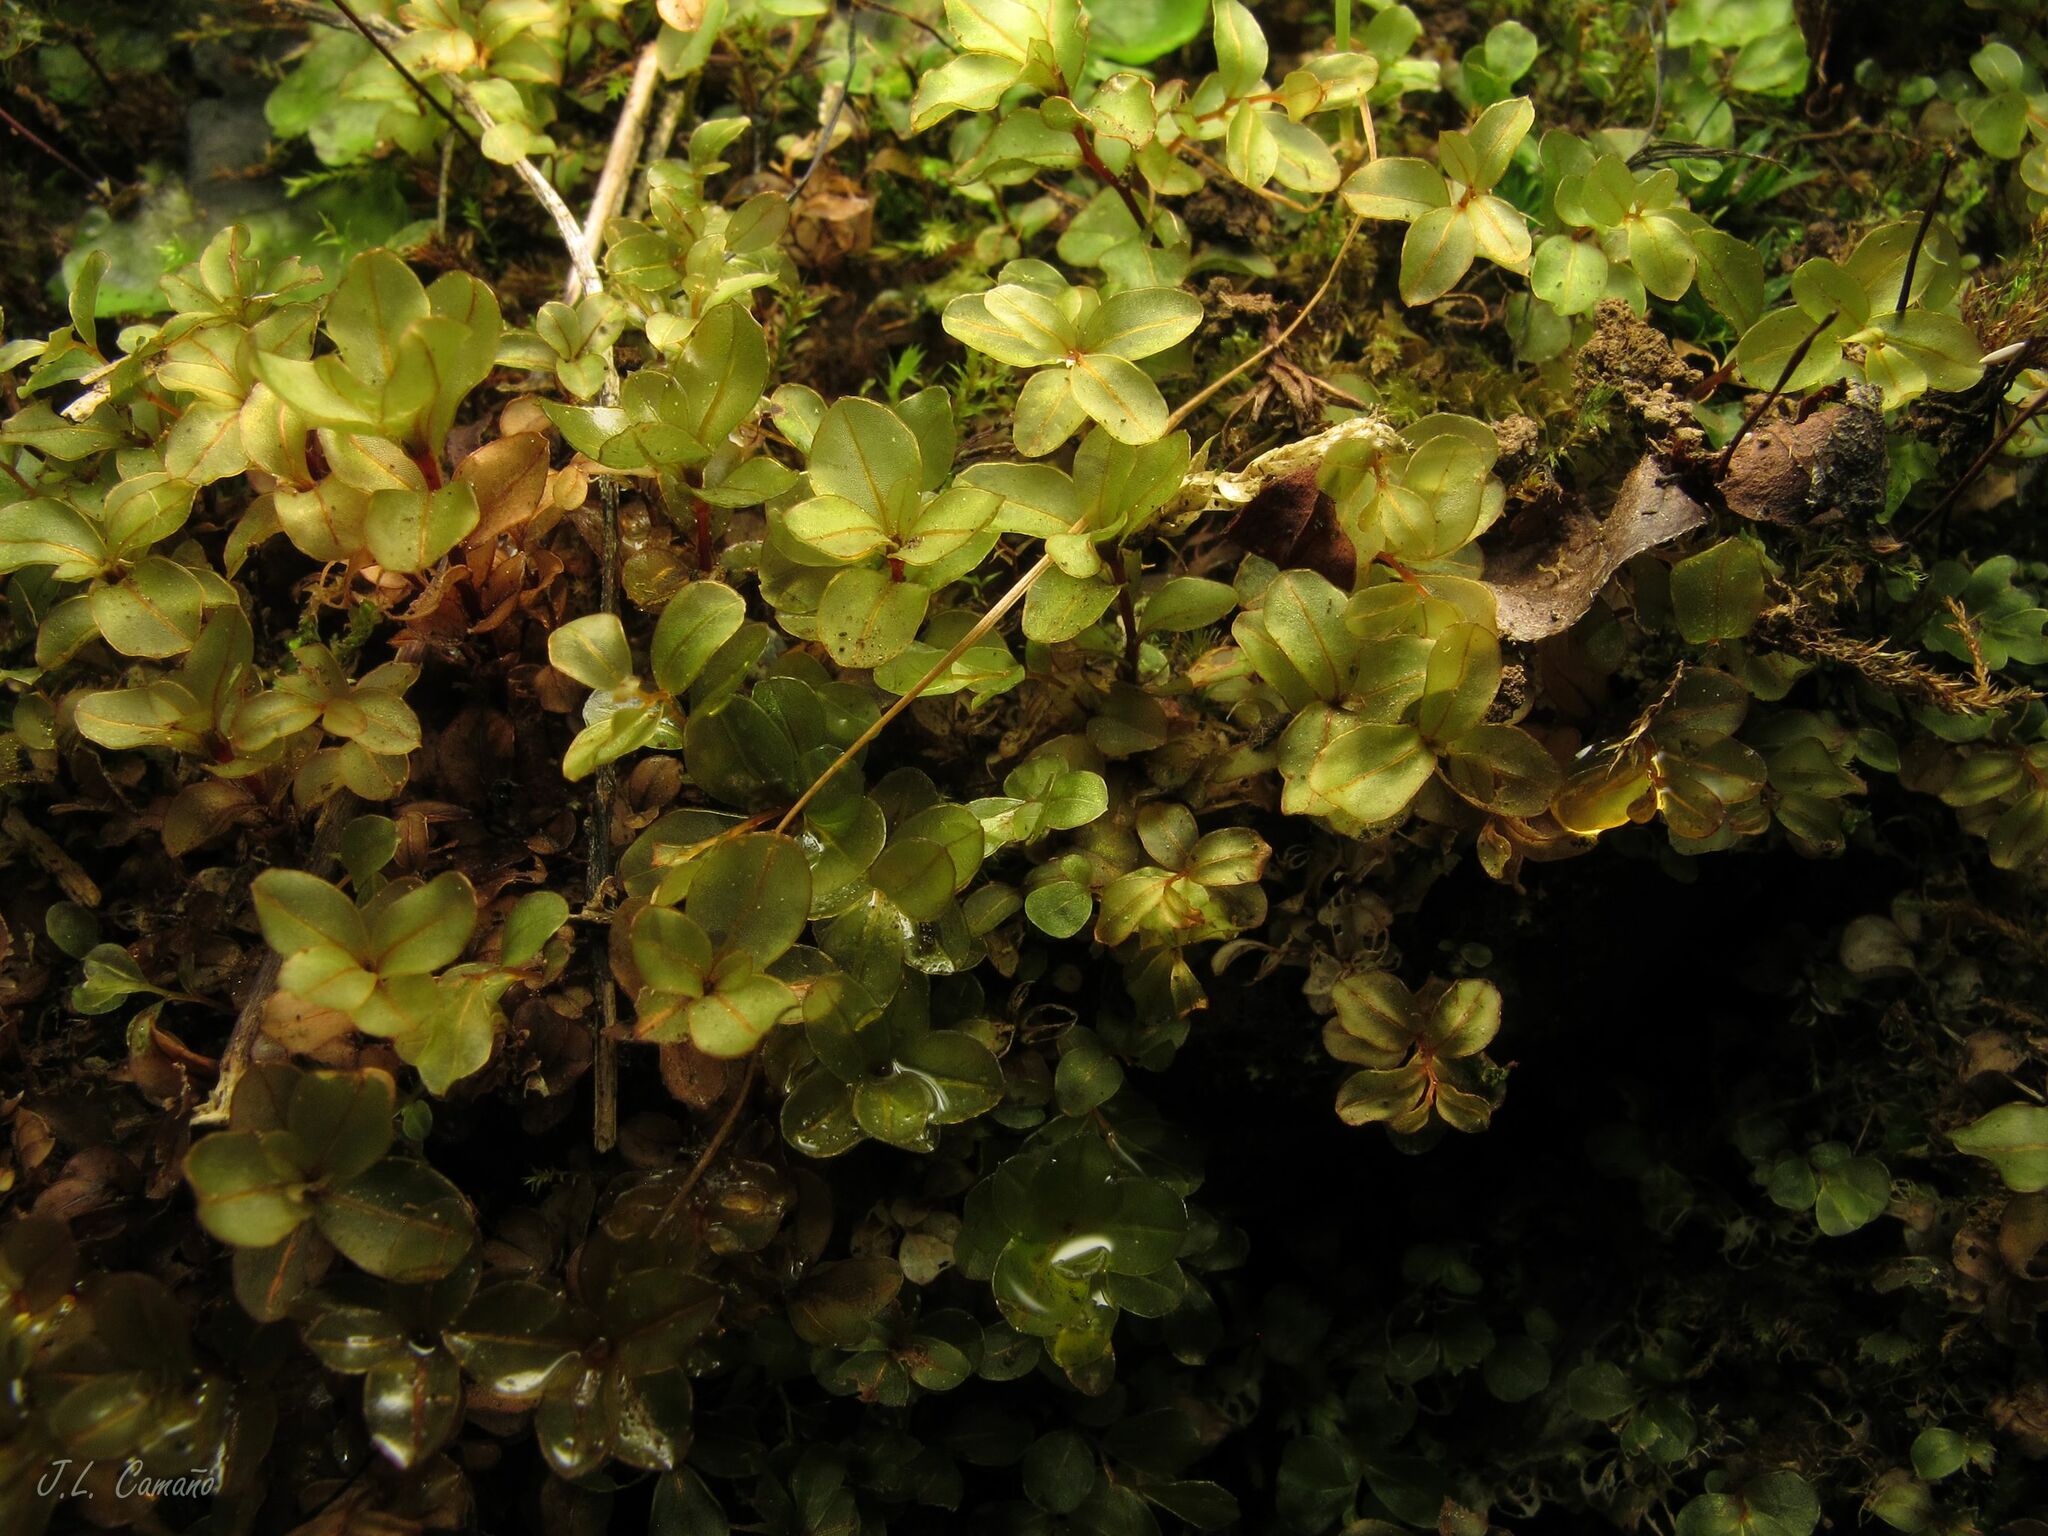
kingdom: Plantae
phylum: Bryophyta
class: Bryopsida
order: Bryales
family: Mniaceae
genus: Rhizomnium
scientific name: Rhizomnium punctatum
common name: Dotted leafy moss
